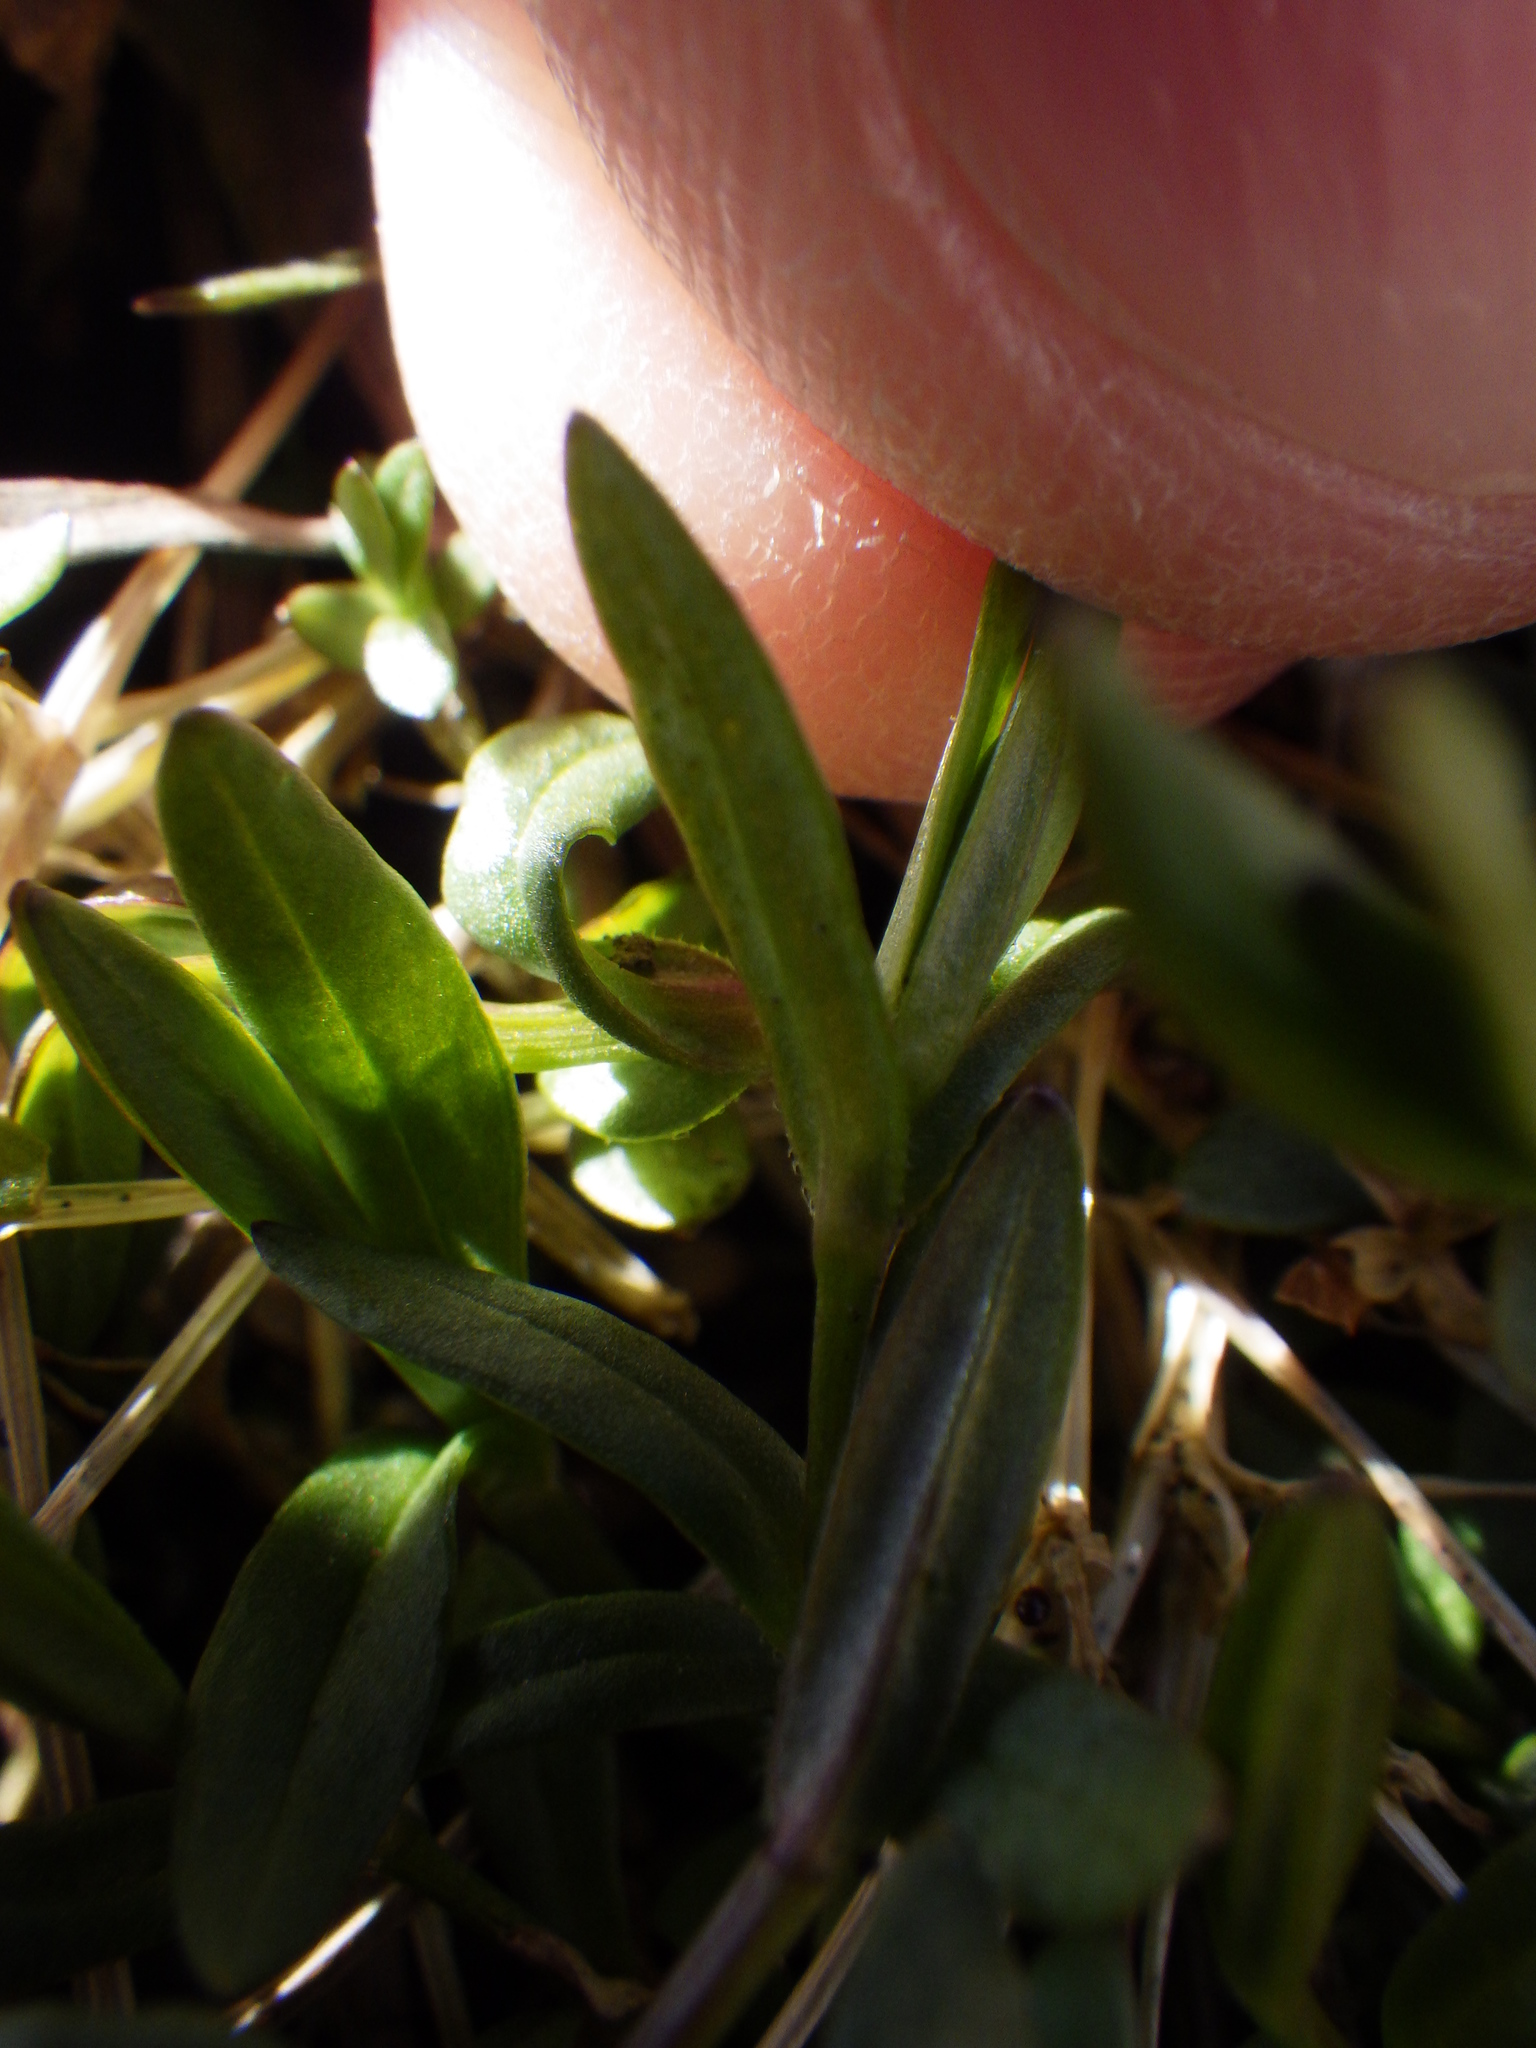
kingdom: Plantae
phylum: Tracheophyta
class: Magnoliopsida
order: Caryophyllales
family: Caryophyllaceae
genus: Stellaria
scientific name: Stellaria graminea
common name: Grass-like starwort
